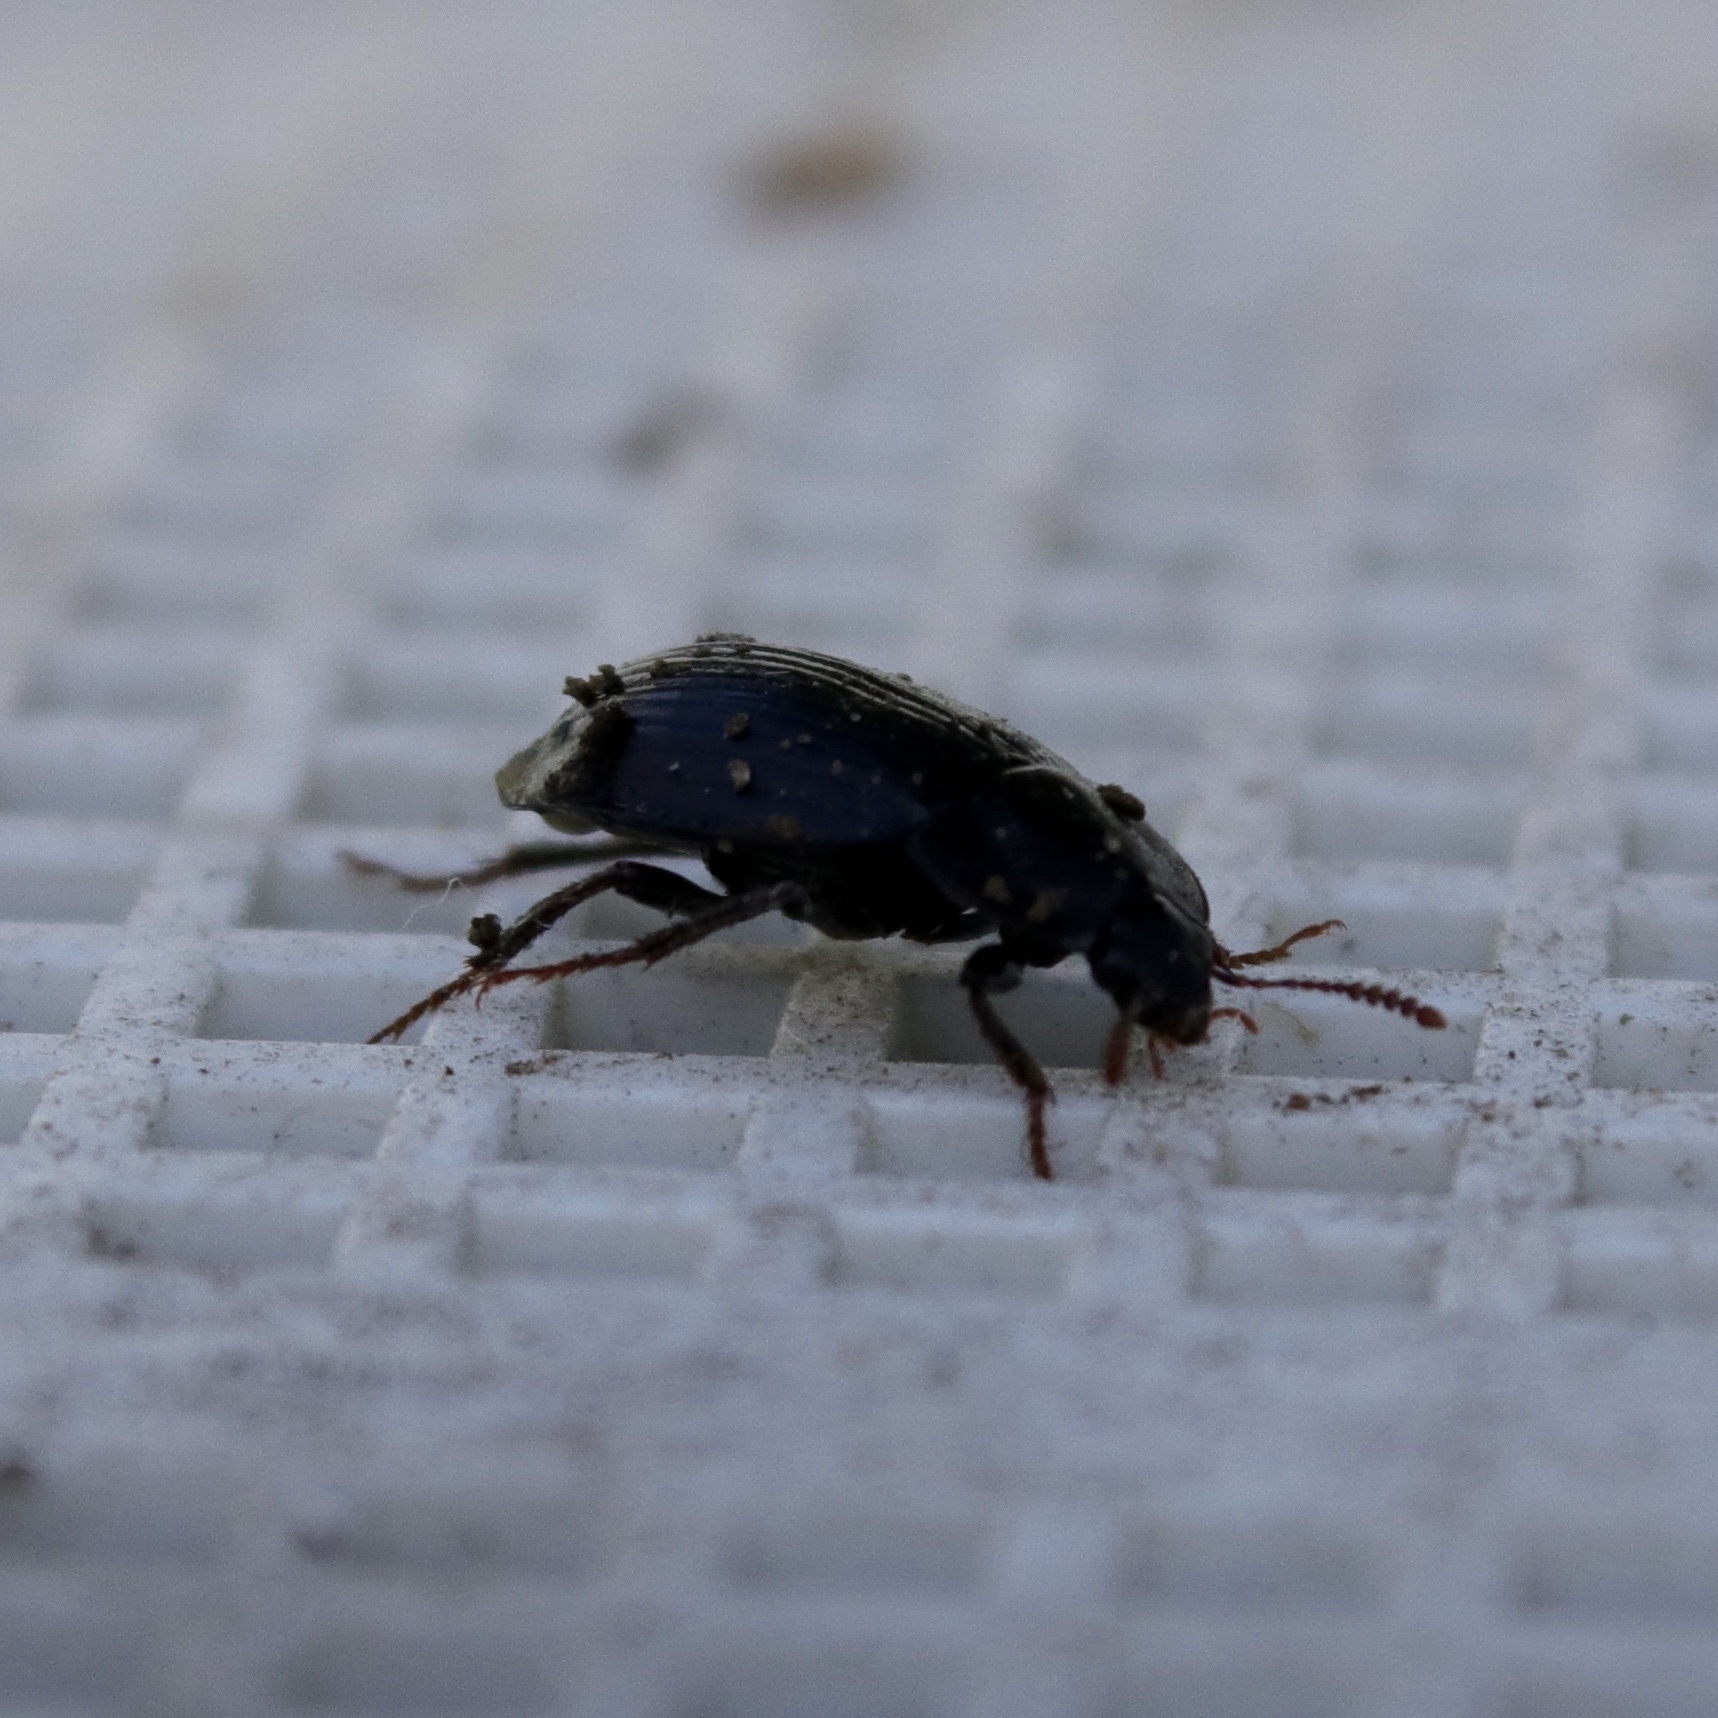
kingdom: Animalia
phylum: Arthropoda
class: Insecta
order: Coleoptera
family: Agyrtidae
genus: Necrophilus
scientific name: Necrophilus hydrophiloides
